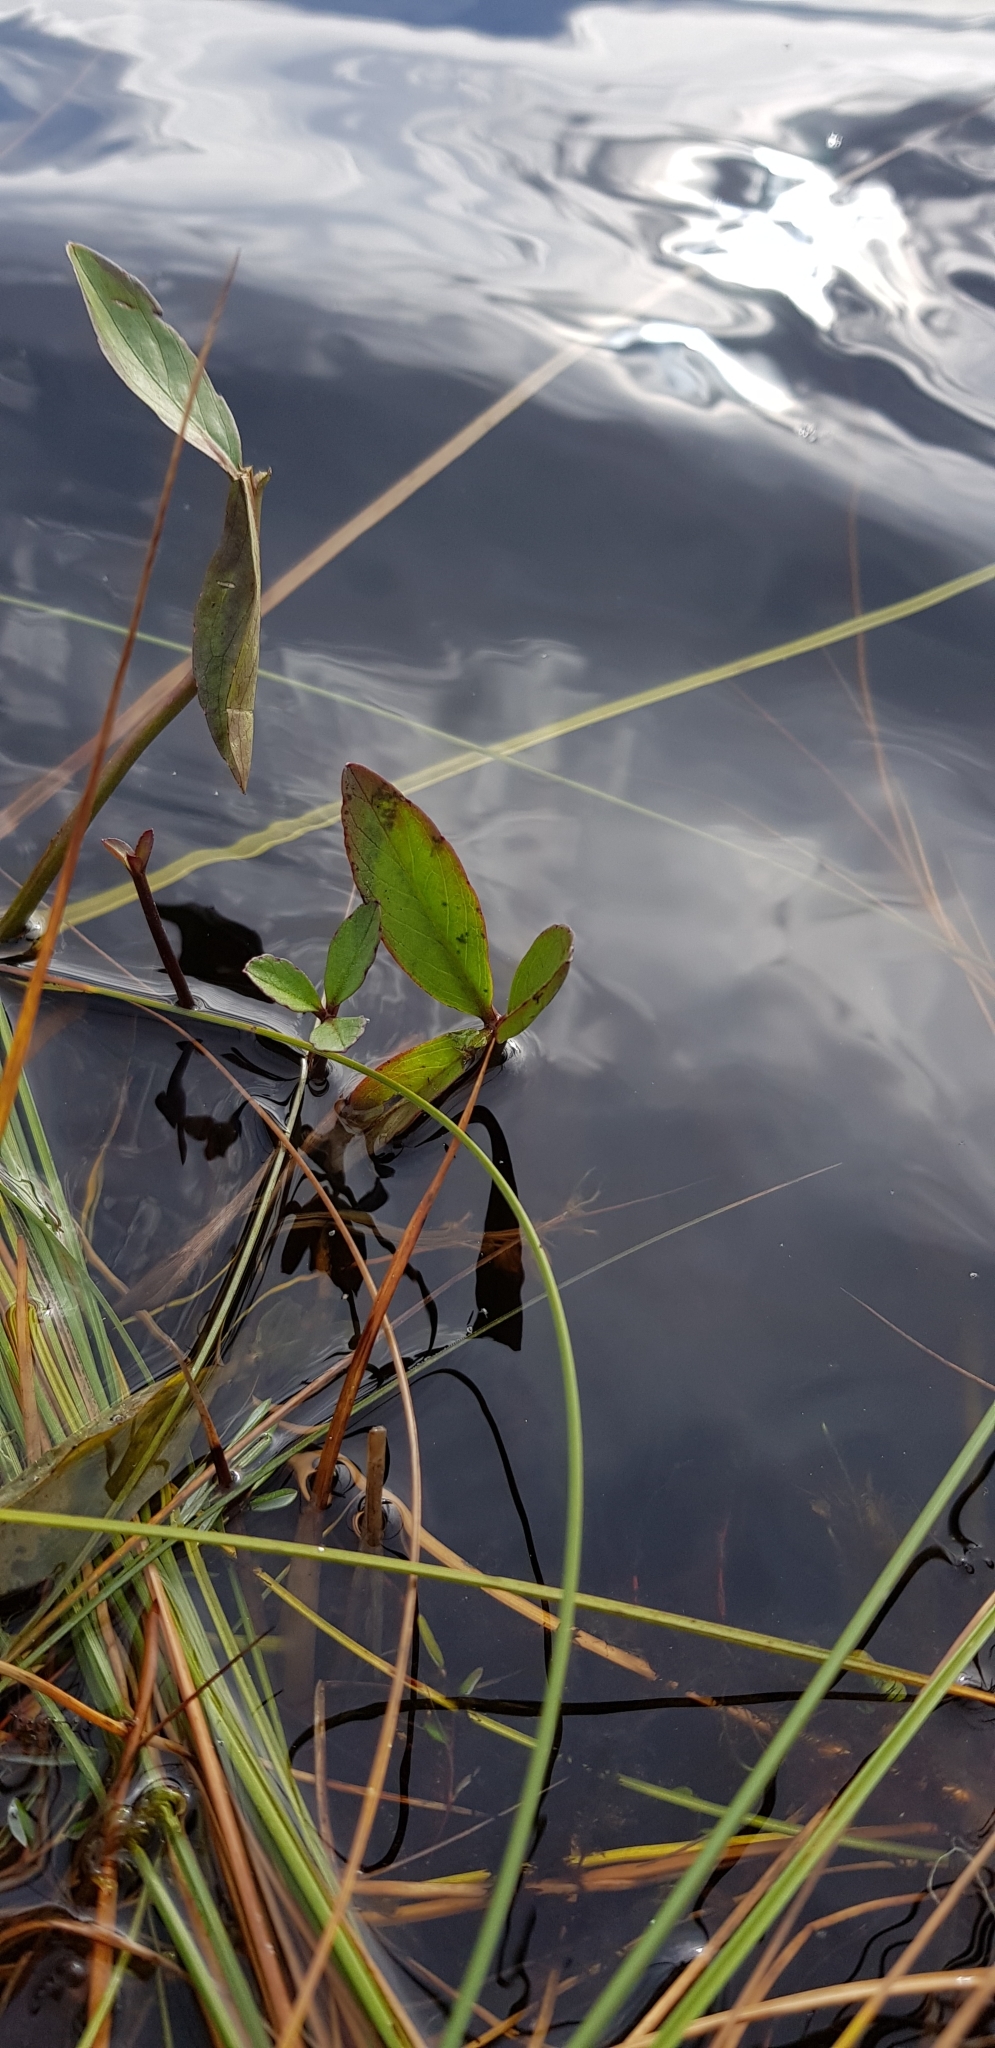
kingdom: Plantae
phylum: Tracheophyta
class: Magnoliopsida
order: Asterales
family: Menyanthaceae
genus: Menyanthes
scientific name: Menyanthes trifoliata
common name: Bogbean
